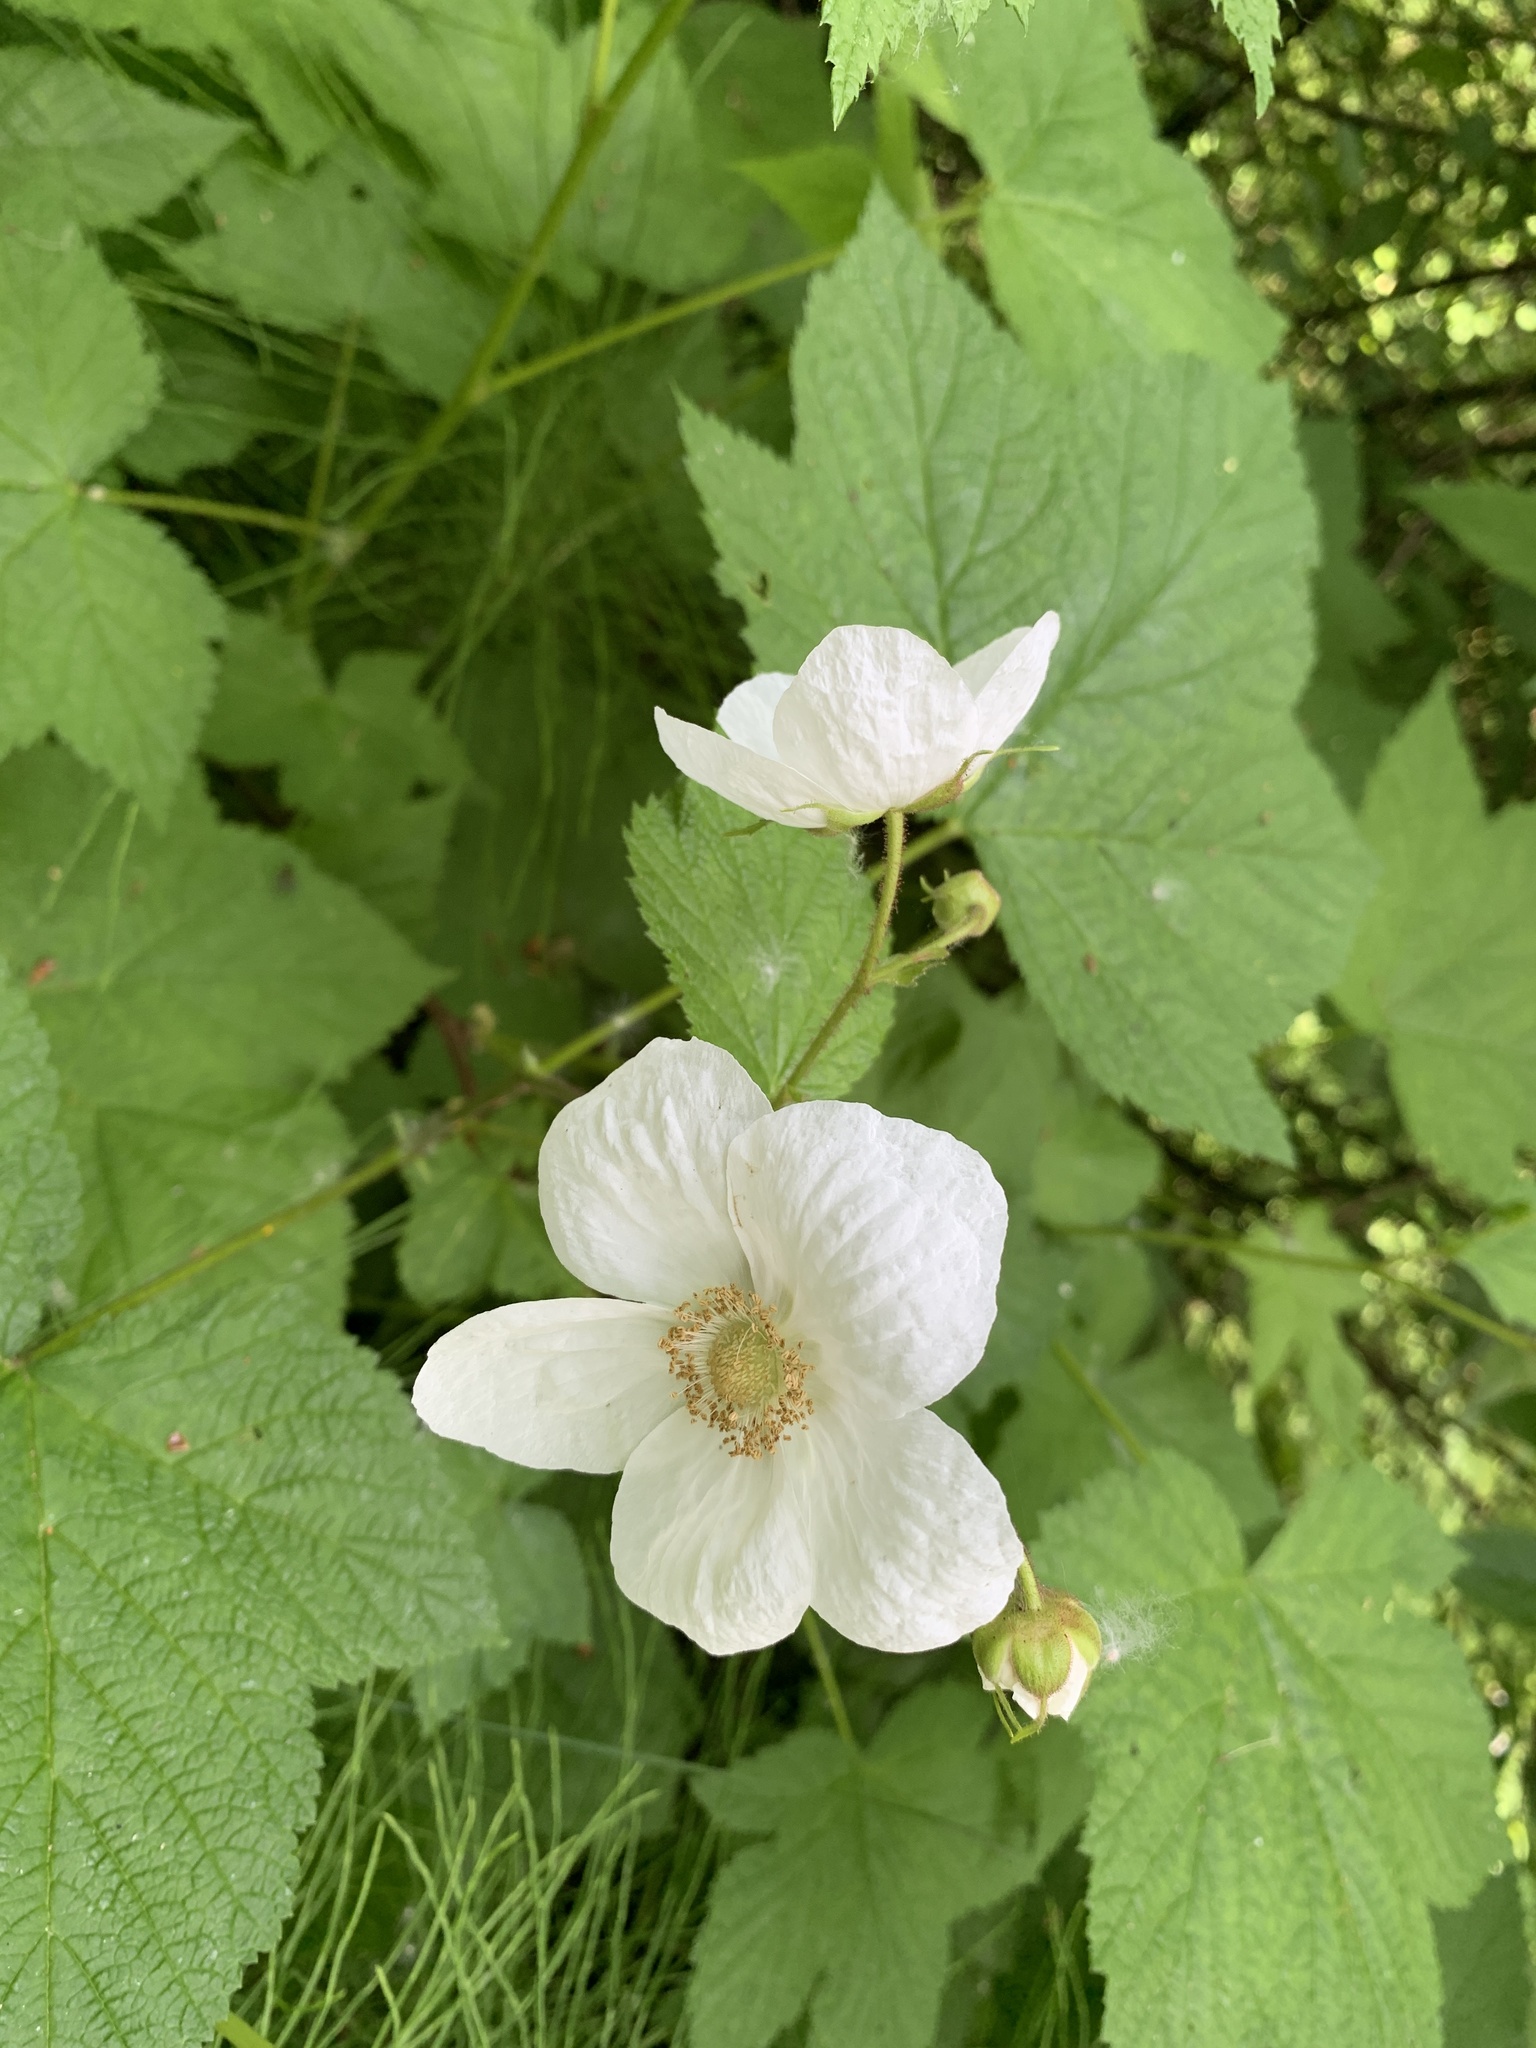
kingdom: Plantae
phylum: Tracheophyta
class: Magnoliopsida
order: Rosales
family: Rosaceae
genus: Rubus
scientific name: Rubus parviflorus
